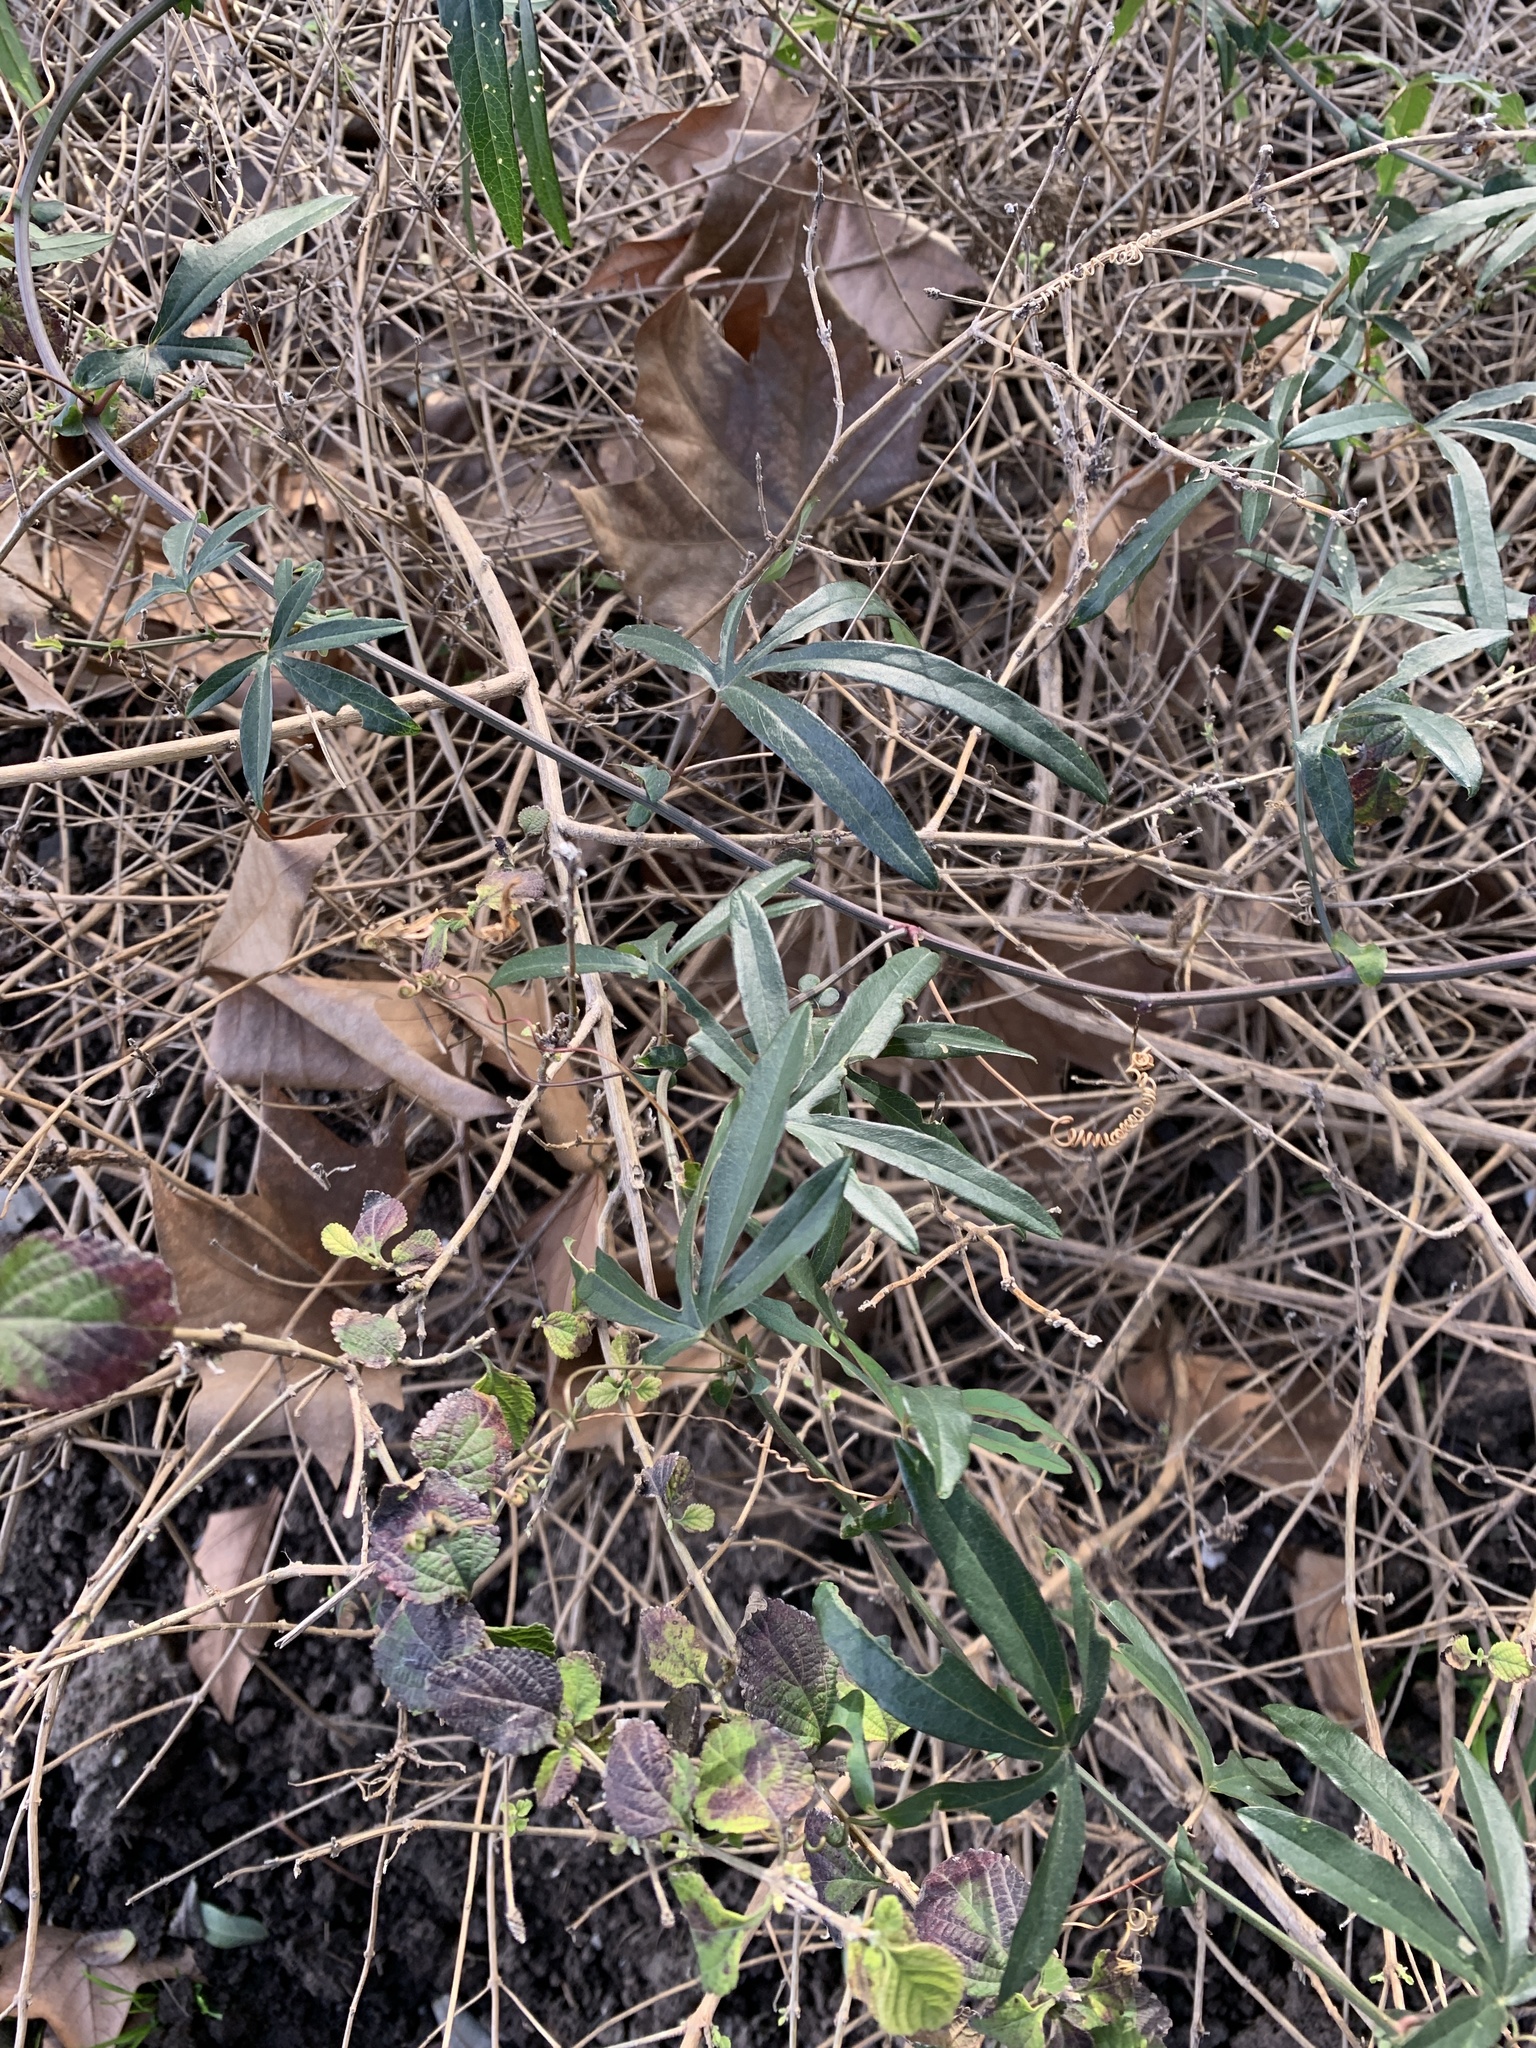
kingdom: Plantae
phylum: Tracheophyta
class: Magnoliopsida
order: Malpighiales
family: Passifloraceae
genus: Passiflora
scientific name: Passiflora caerulea
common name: Blue passionflower
